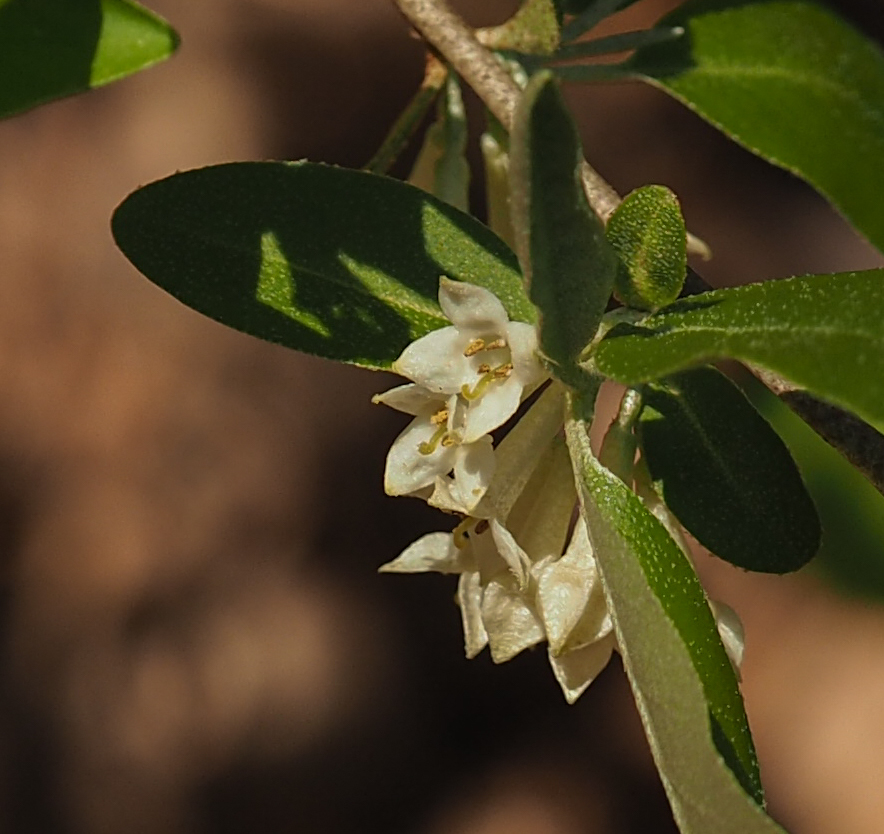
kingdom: Plantae
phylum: Tracheophyta
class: Magnoliopsida
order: Rosales
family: Elaeagnaceae
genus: Elaeagnus
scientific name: Elaeagnus umbellata
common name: Autumn olive
